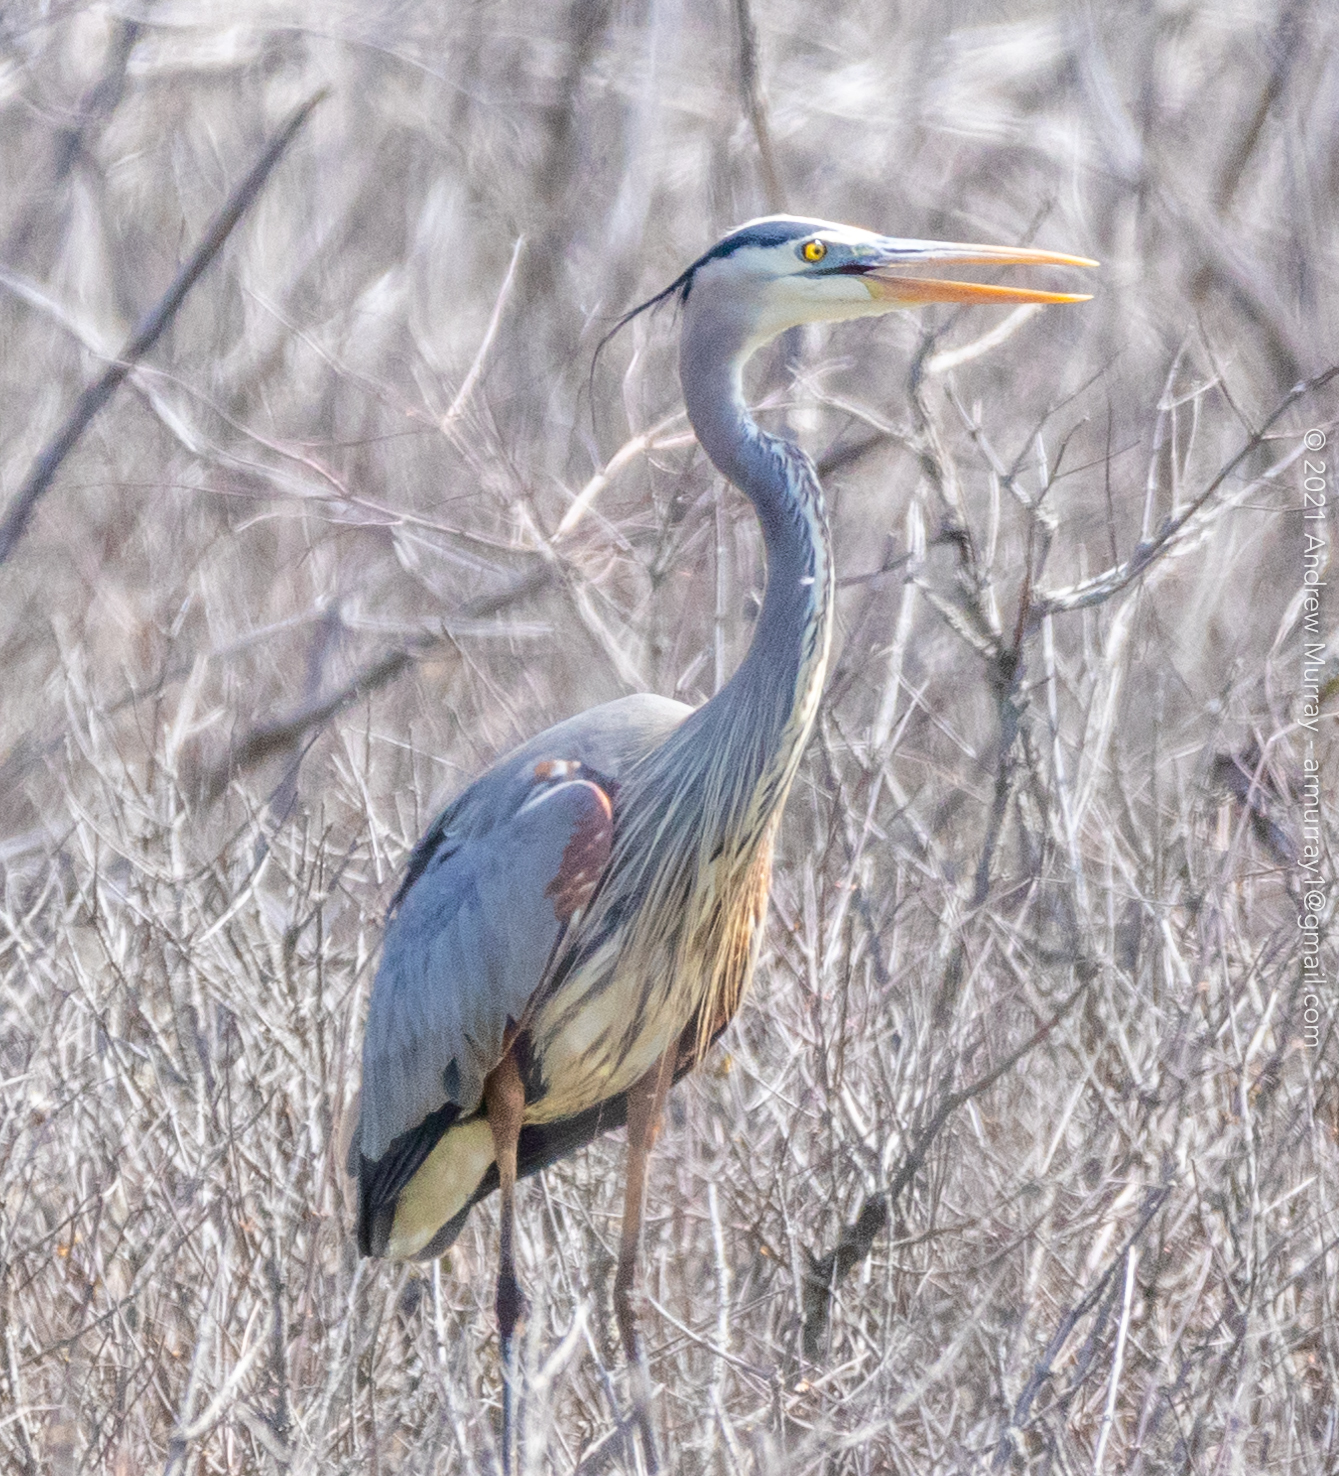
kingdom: Animalia
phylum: Chordata
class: Aves
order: Pelecaniformes
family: Ardeidae
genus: Ardea
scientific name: Ardea herodias
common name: Great blue heron
